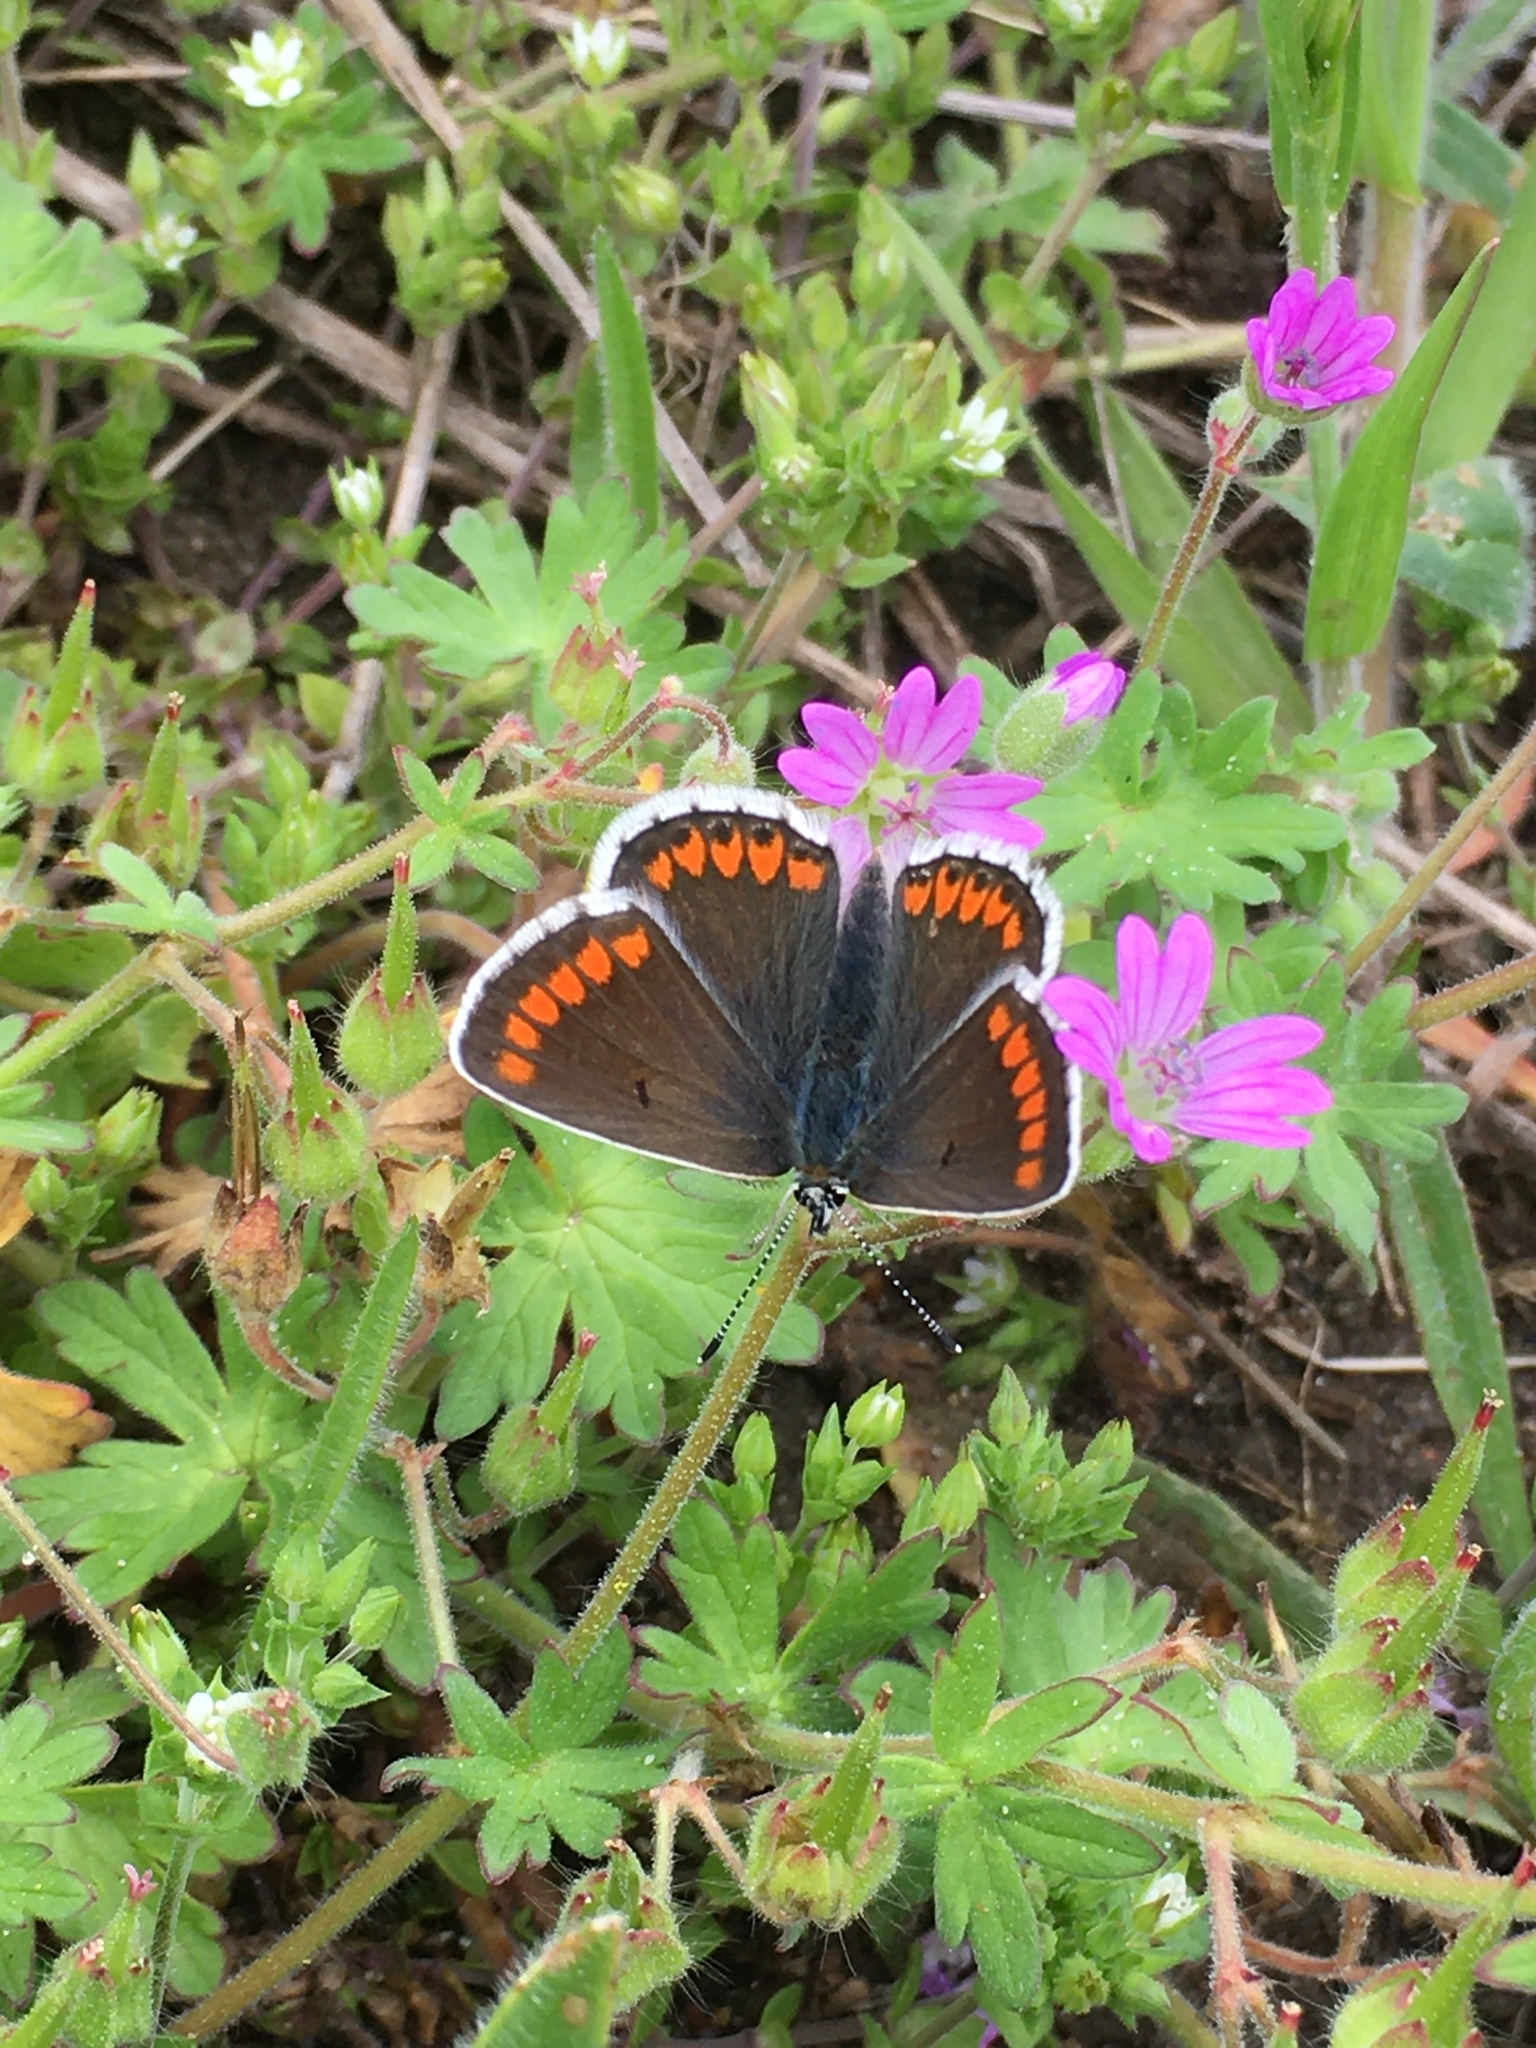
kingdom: Animalia
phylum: Arthropoda
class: Insecta
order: Lepidoptera
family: Lycaenidae
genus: Aricia
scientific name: Aricia agestis
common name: Brown argus
